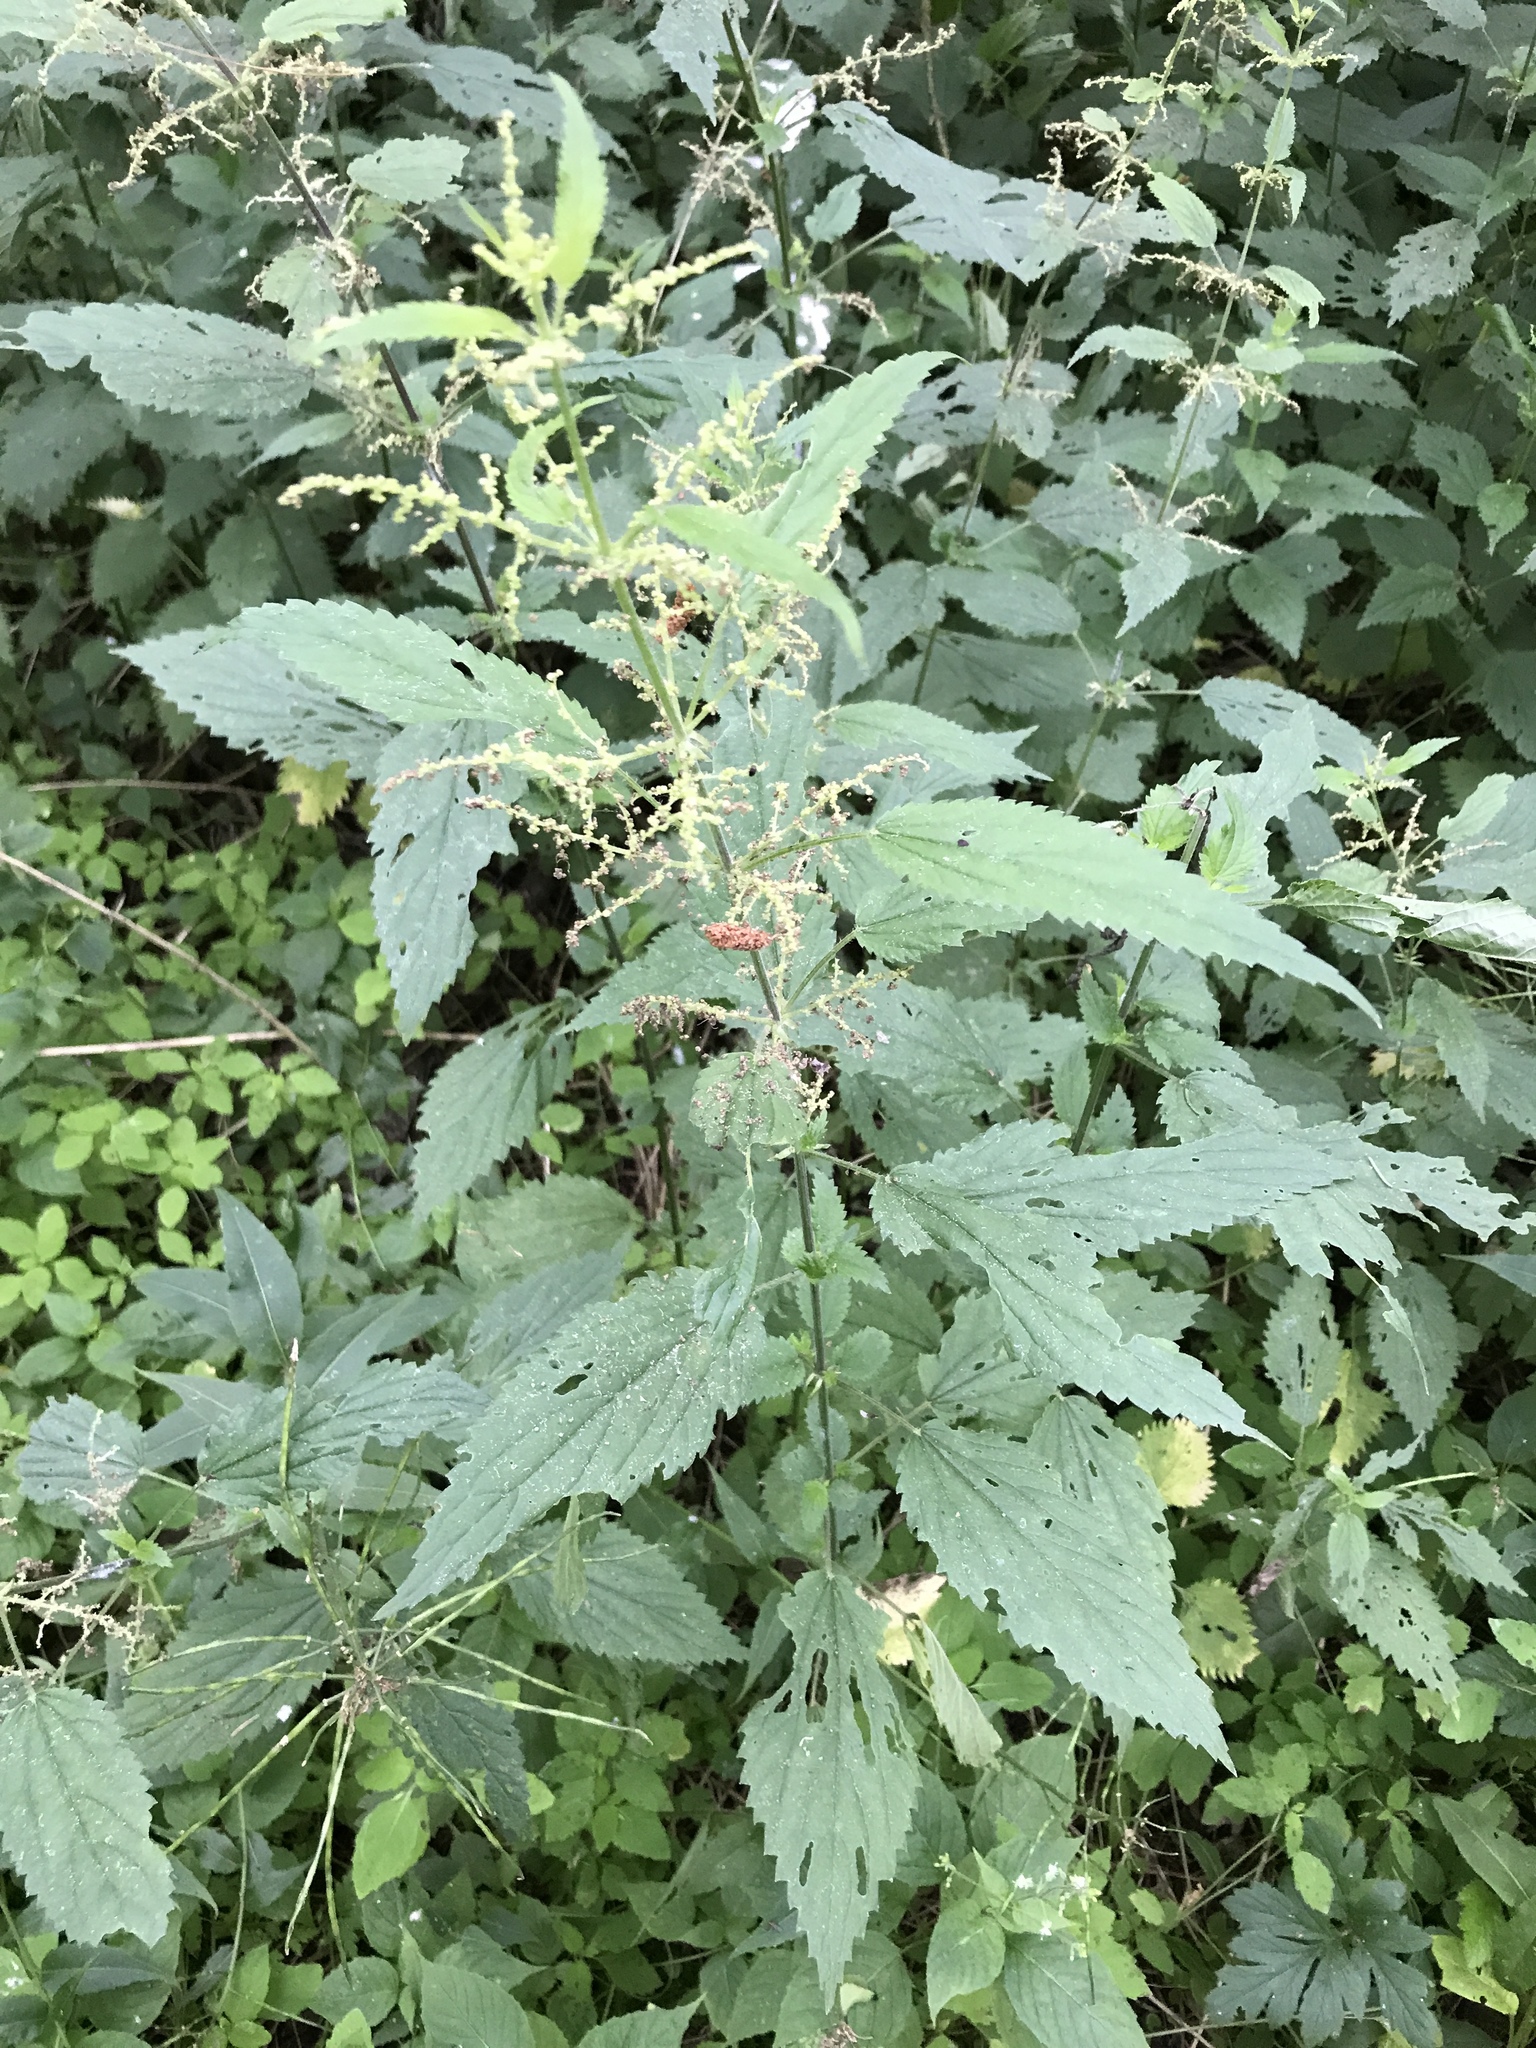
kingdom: Plantae
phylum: Tracheophyta
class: Magnoliopsida
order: Rosales
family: Urticaceae
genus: Urtica
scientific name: Urtica dioica
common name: Common nettle
